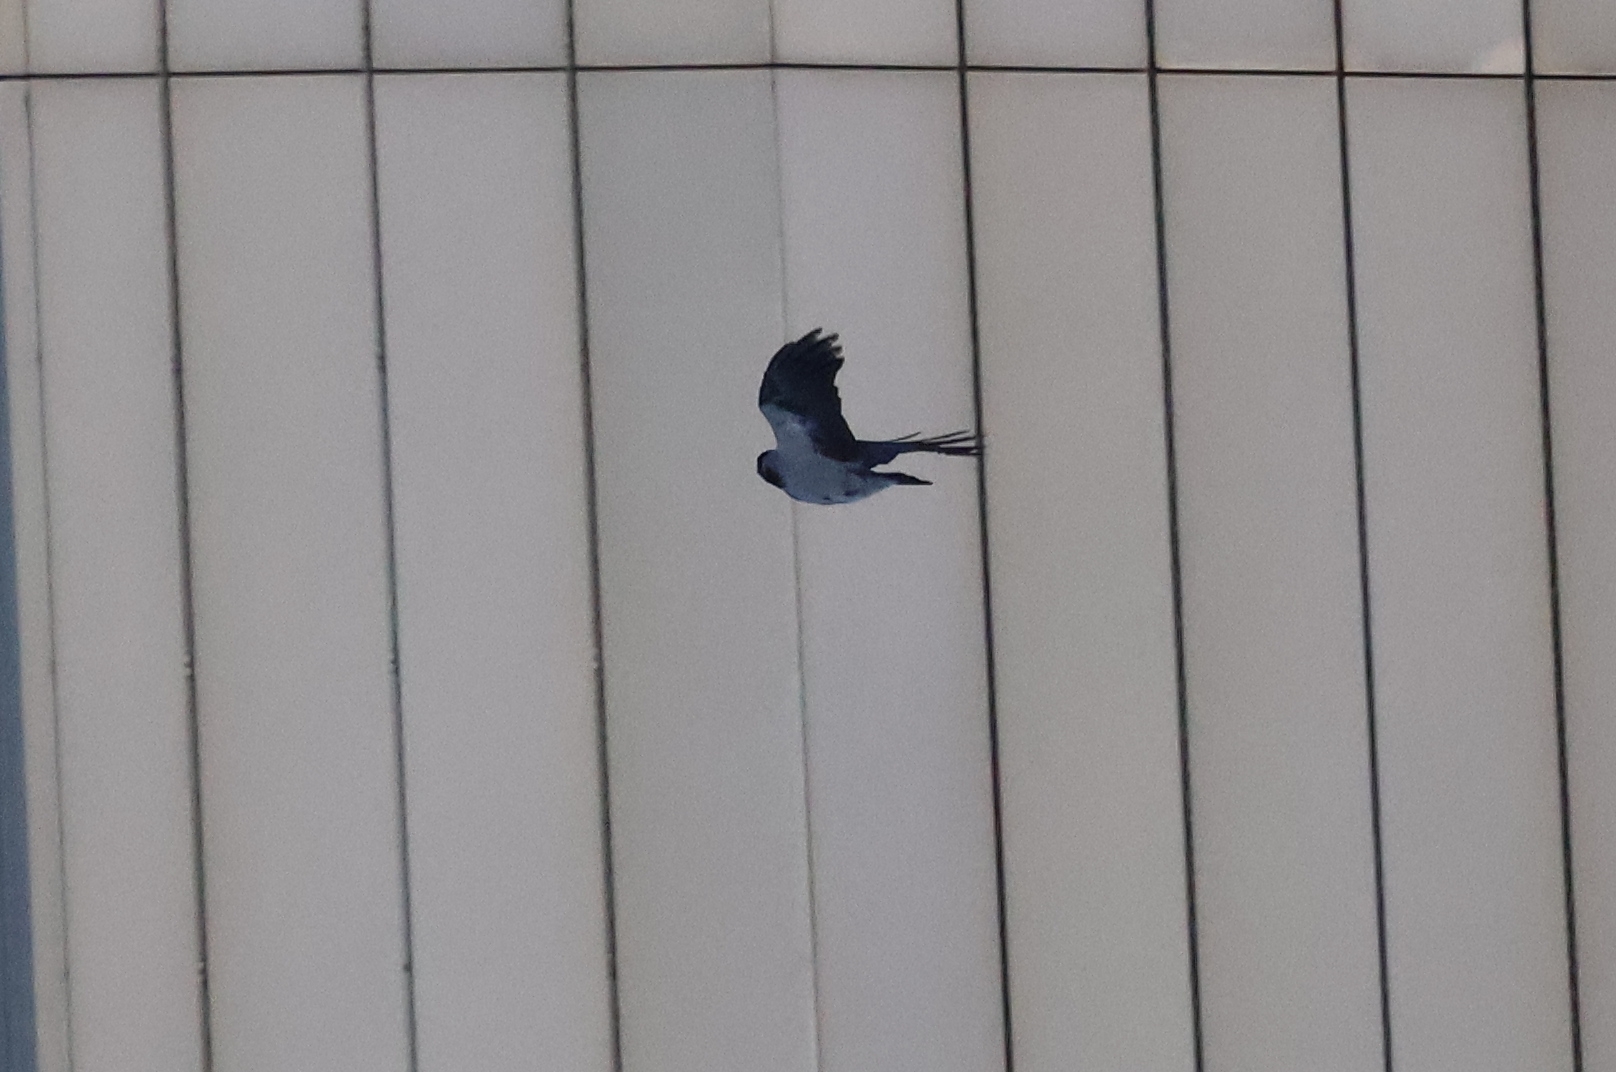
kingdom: Animalia
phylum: Chordata
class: Aves
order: Passeriformes
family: Corvidae
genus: Corvus
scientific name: Corvus cornix
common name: Hooded crow
